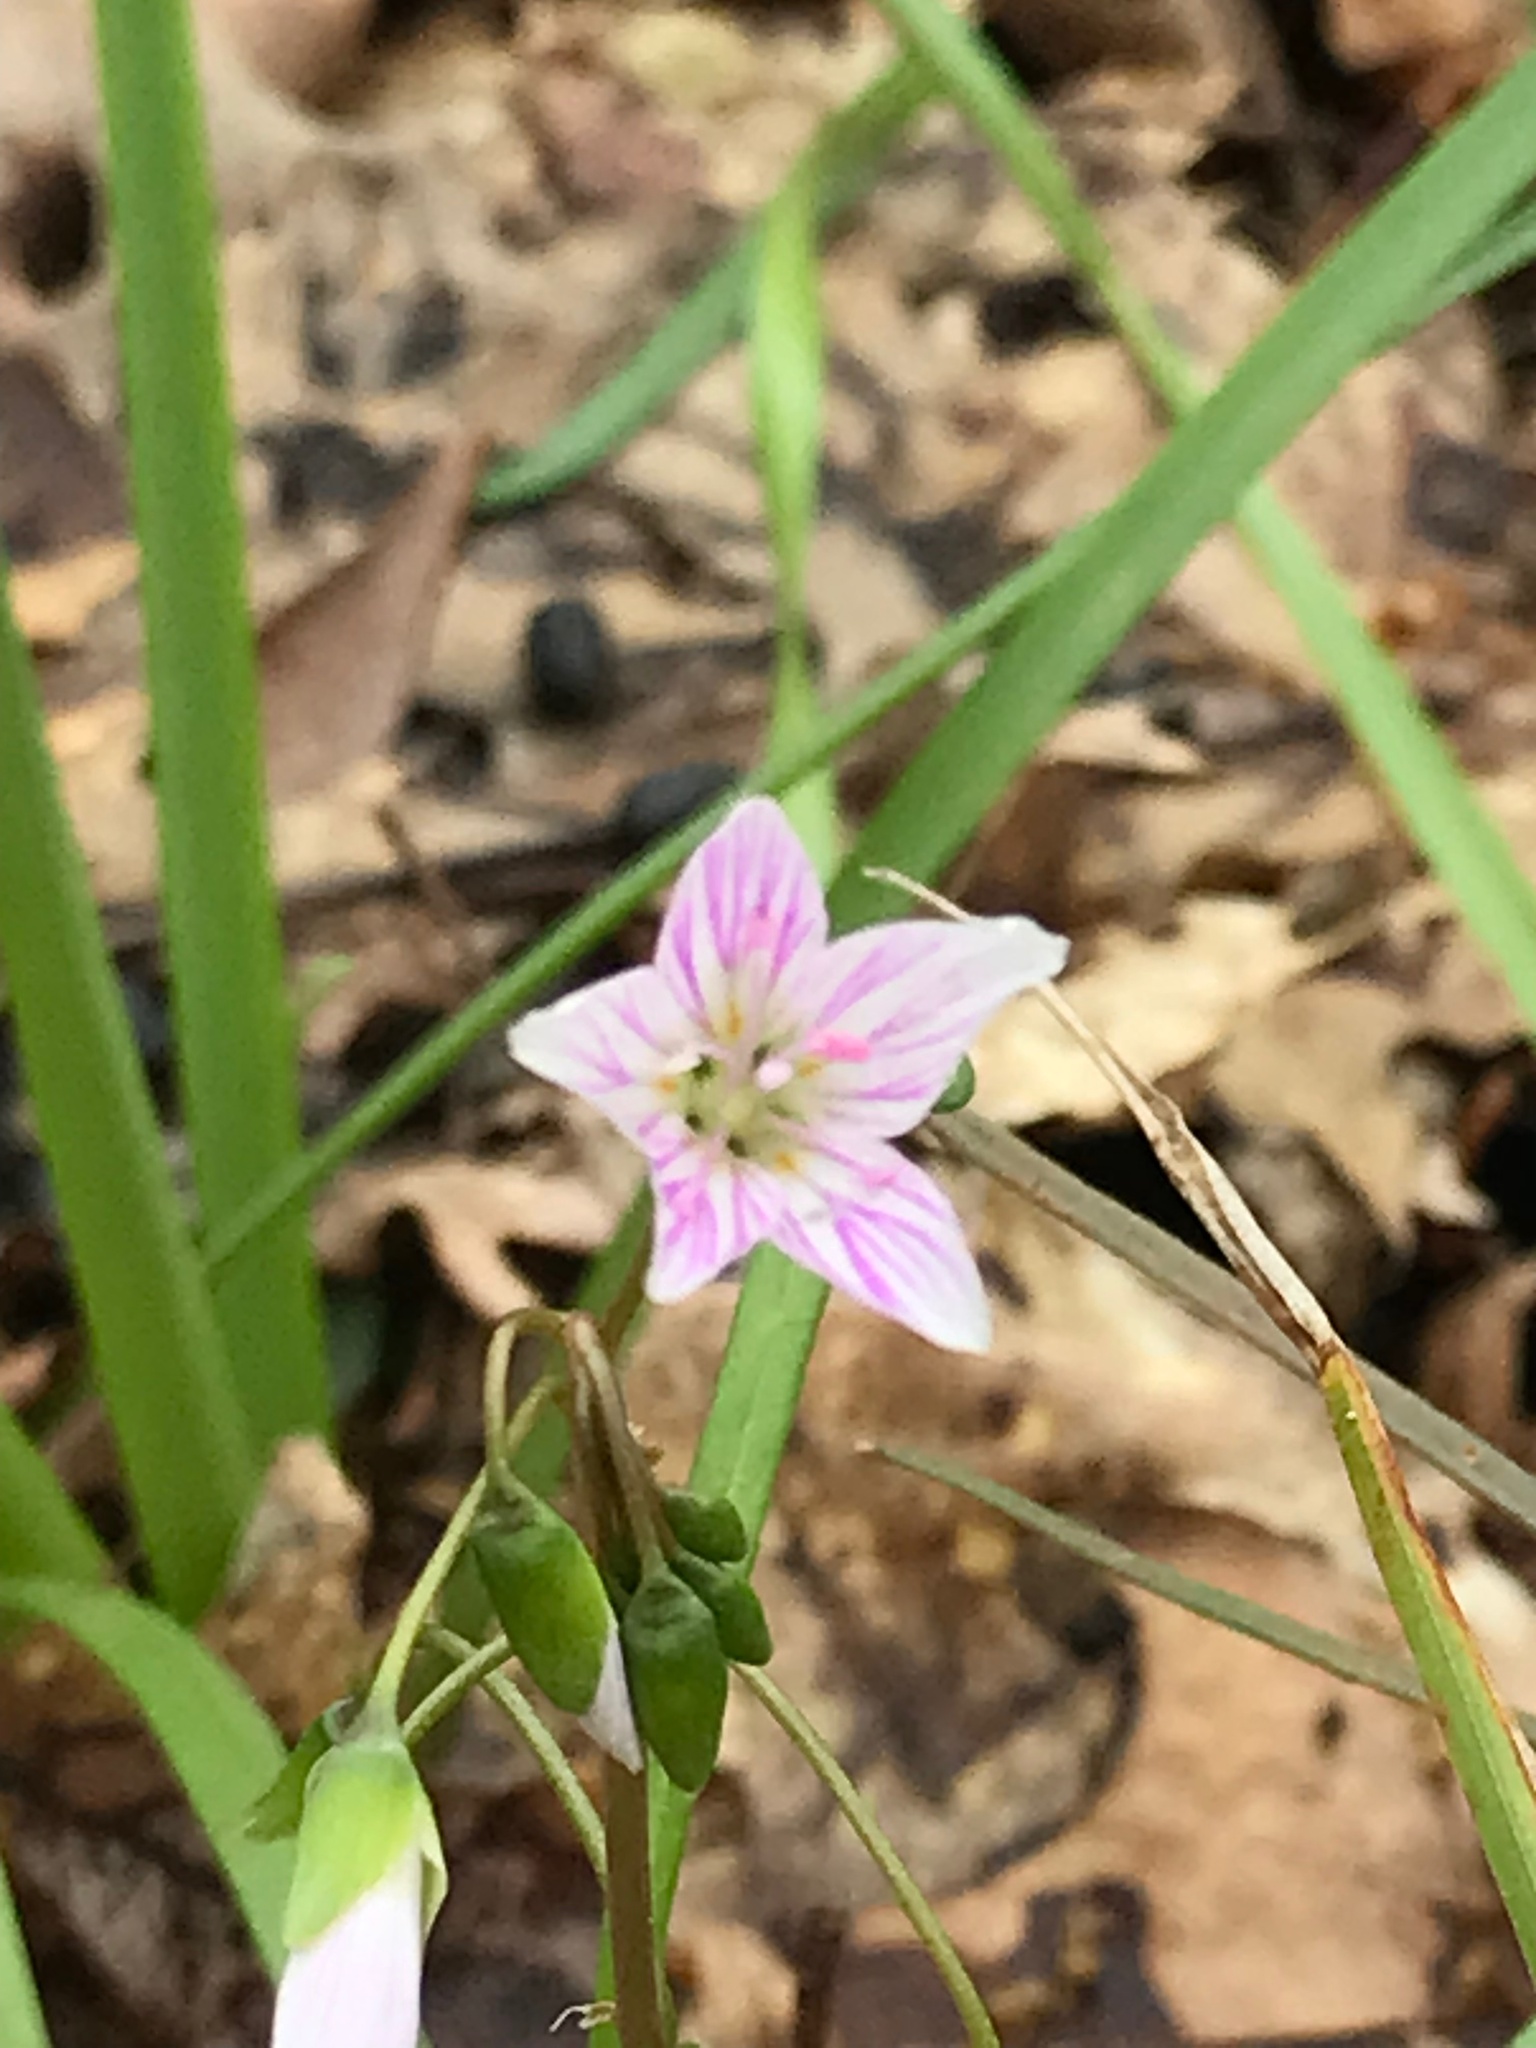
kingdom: Plantae
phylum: Tracheophyta
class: Magnoliopsida
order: Caryophyllales
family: Montiaceae
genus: Claytonia
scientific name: Claytonia virginica
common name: Virginia springbeauty
